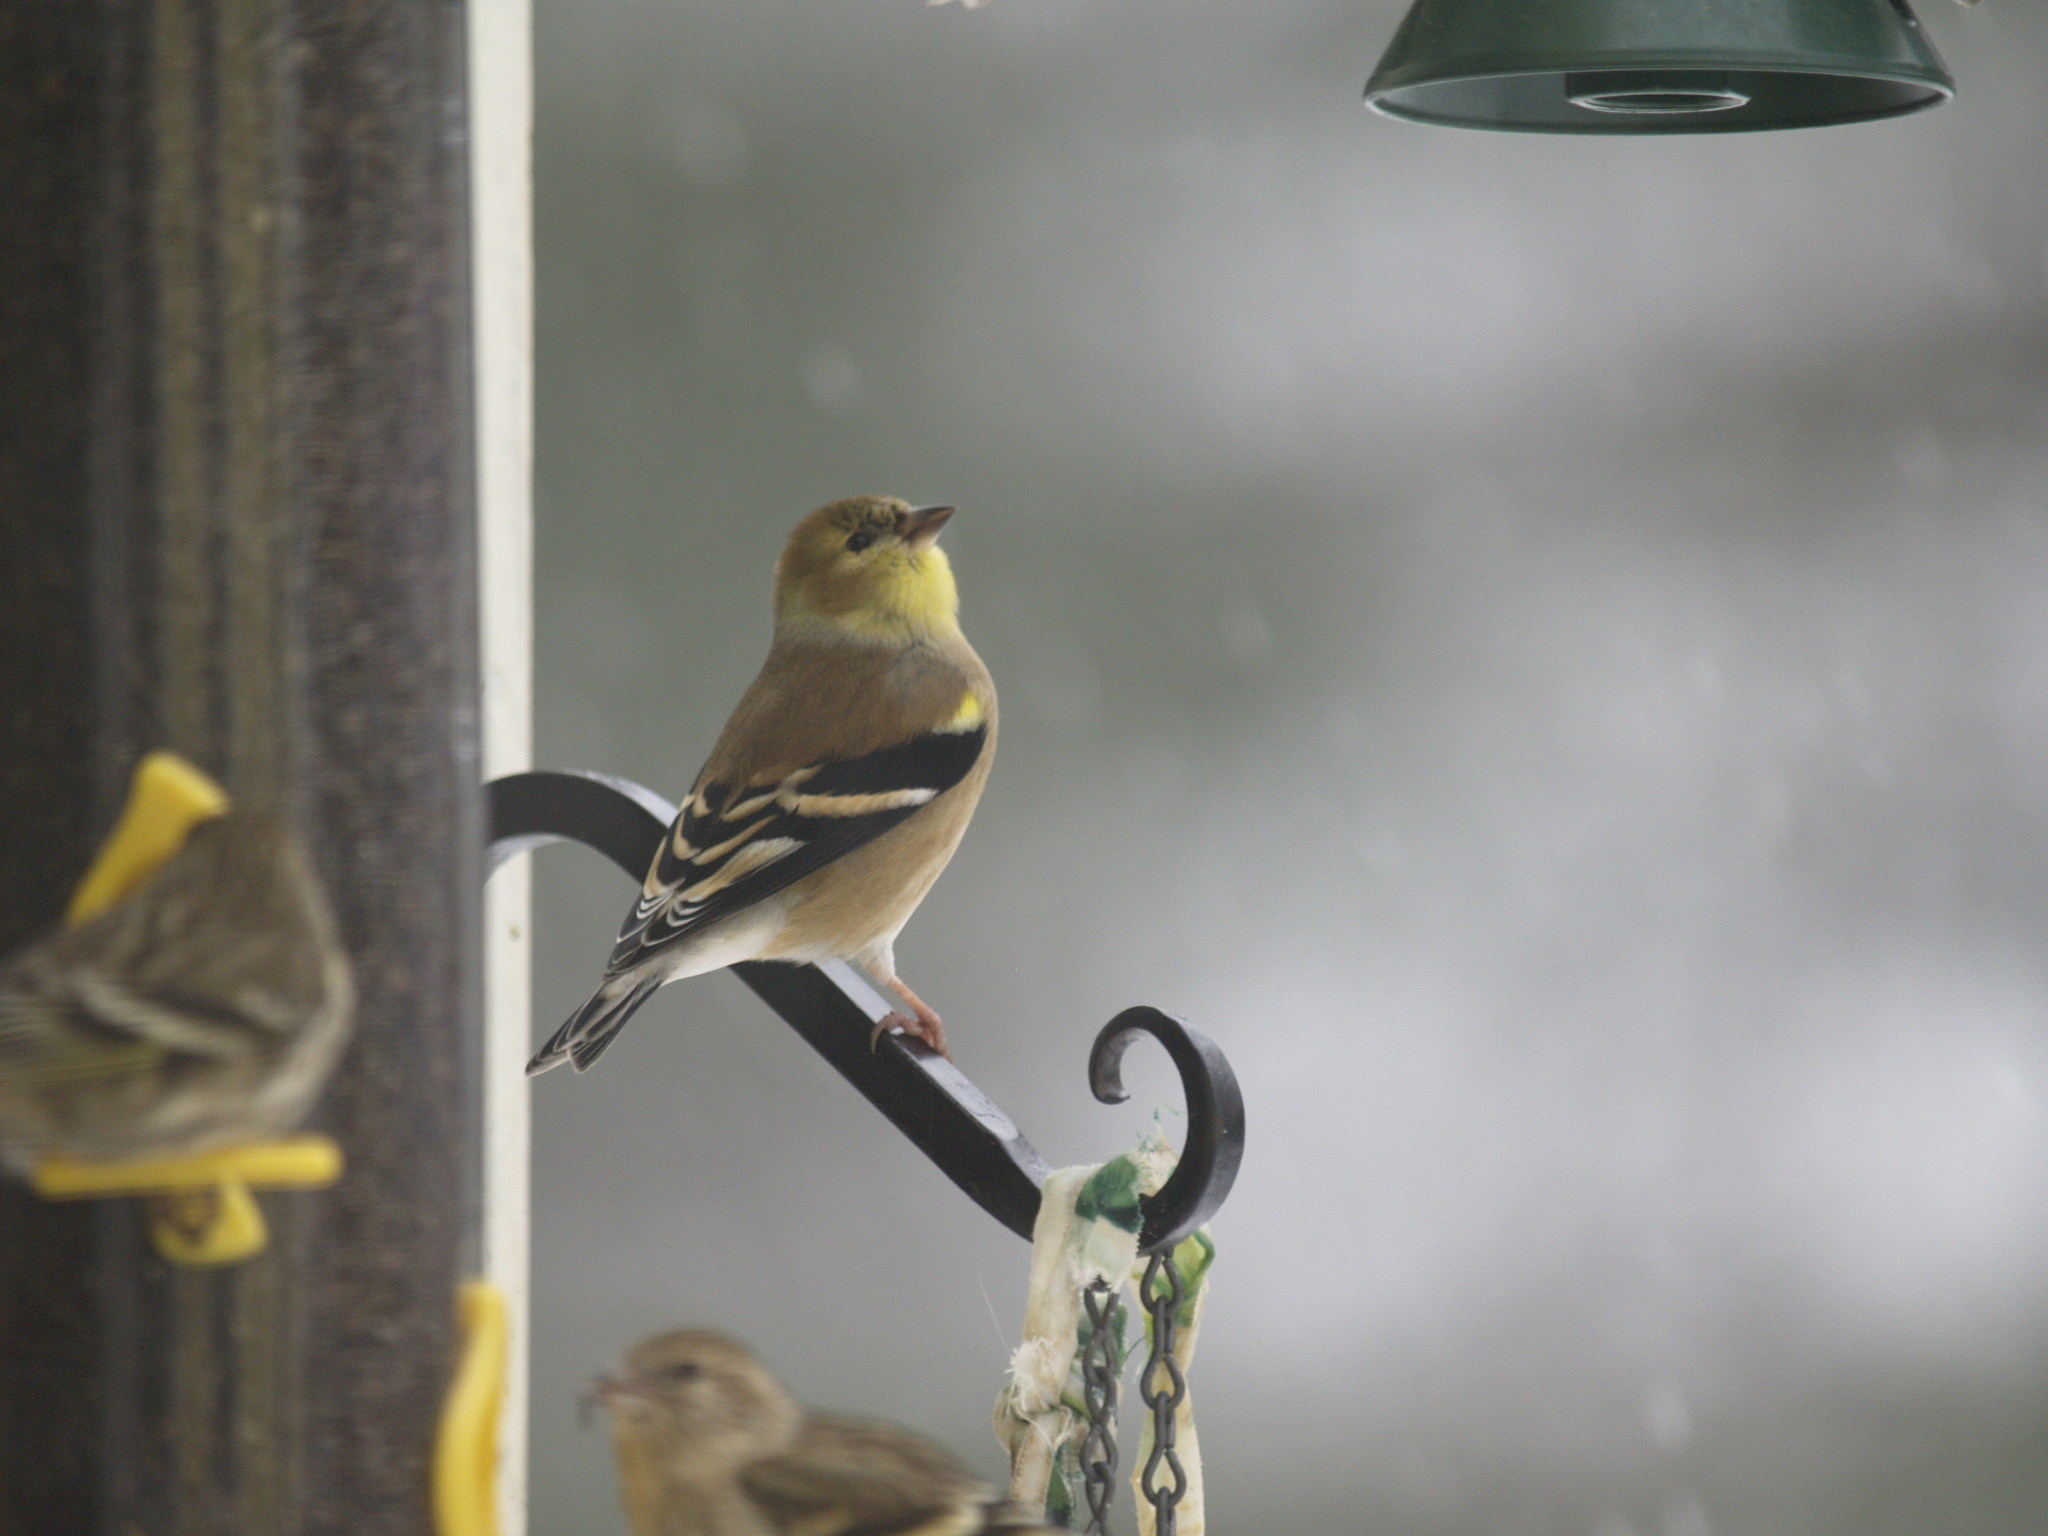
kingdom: Animalia
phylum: Chordata
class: Aves
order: Passeriformes
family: Fringillidae
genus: Spinus
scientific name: Spinus tristis
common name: American goldfinch
